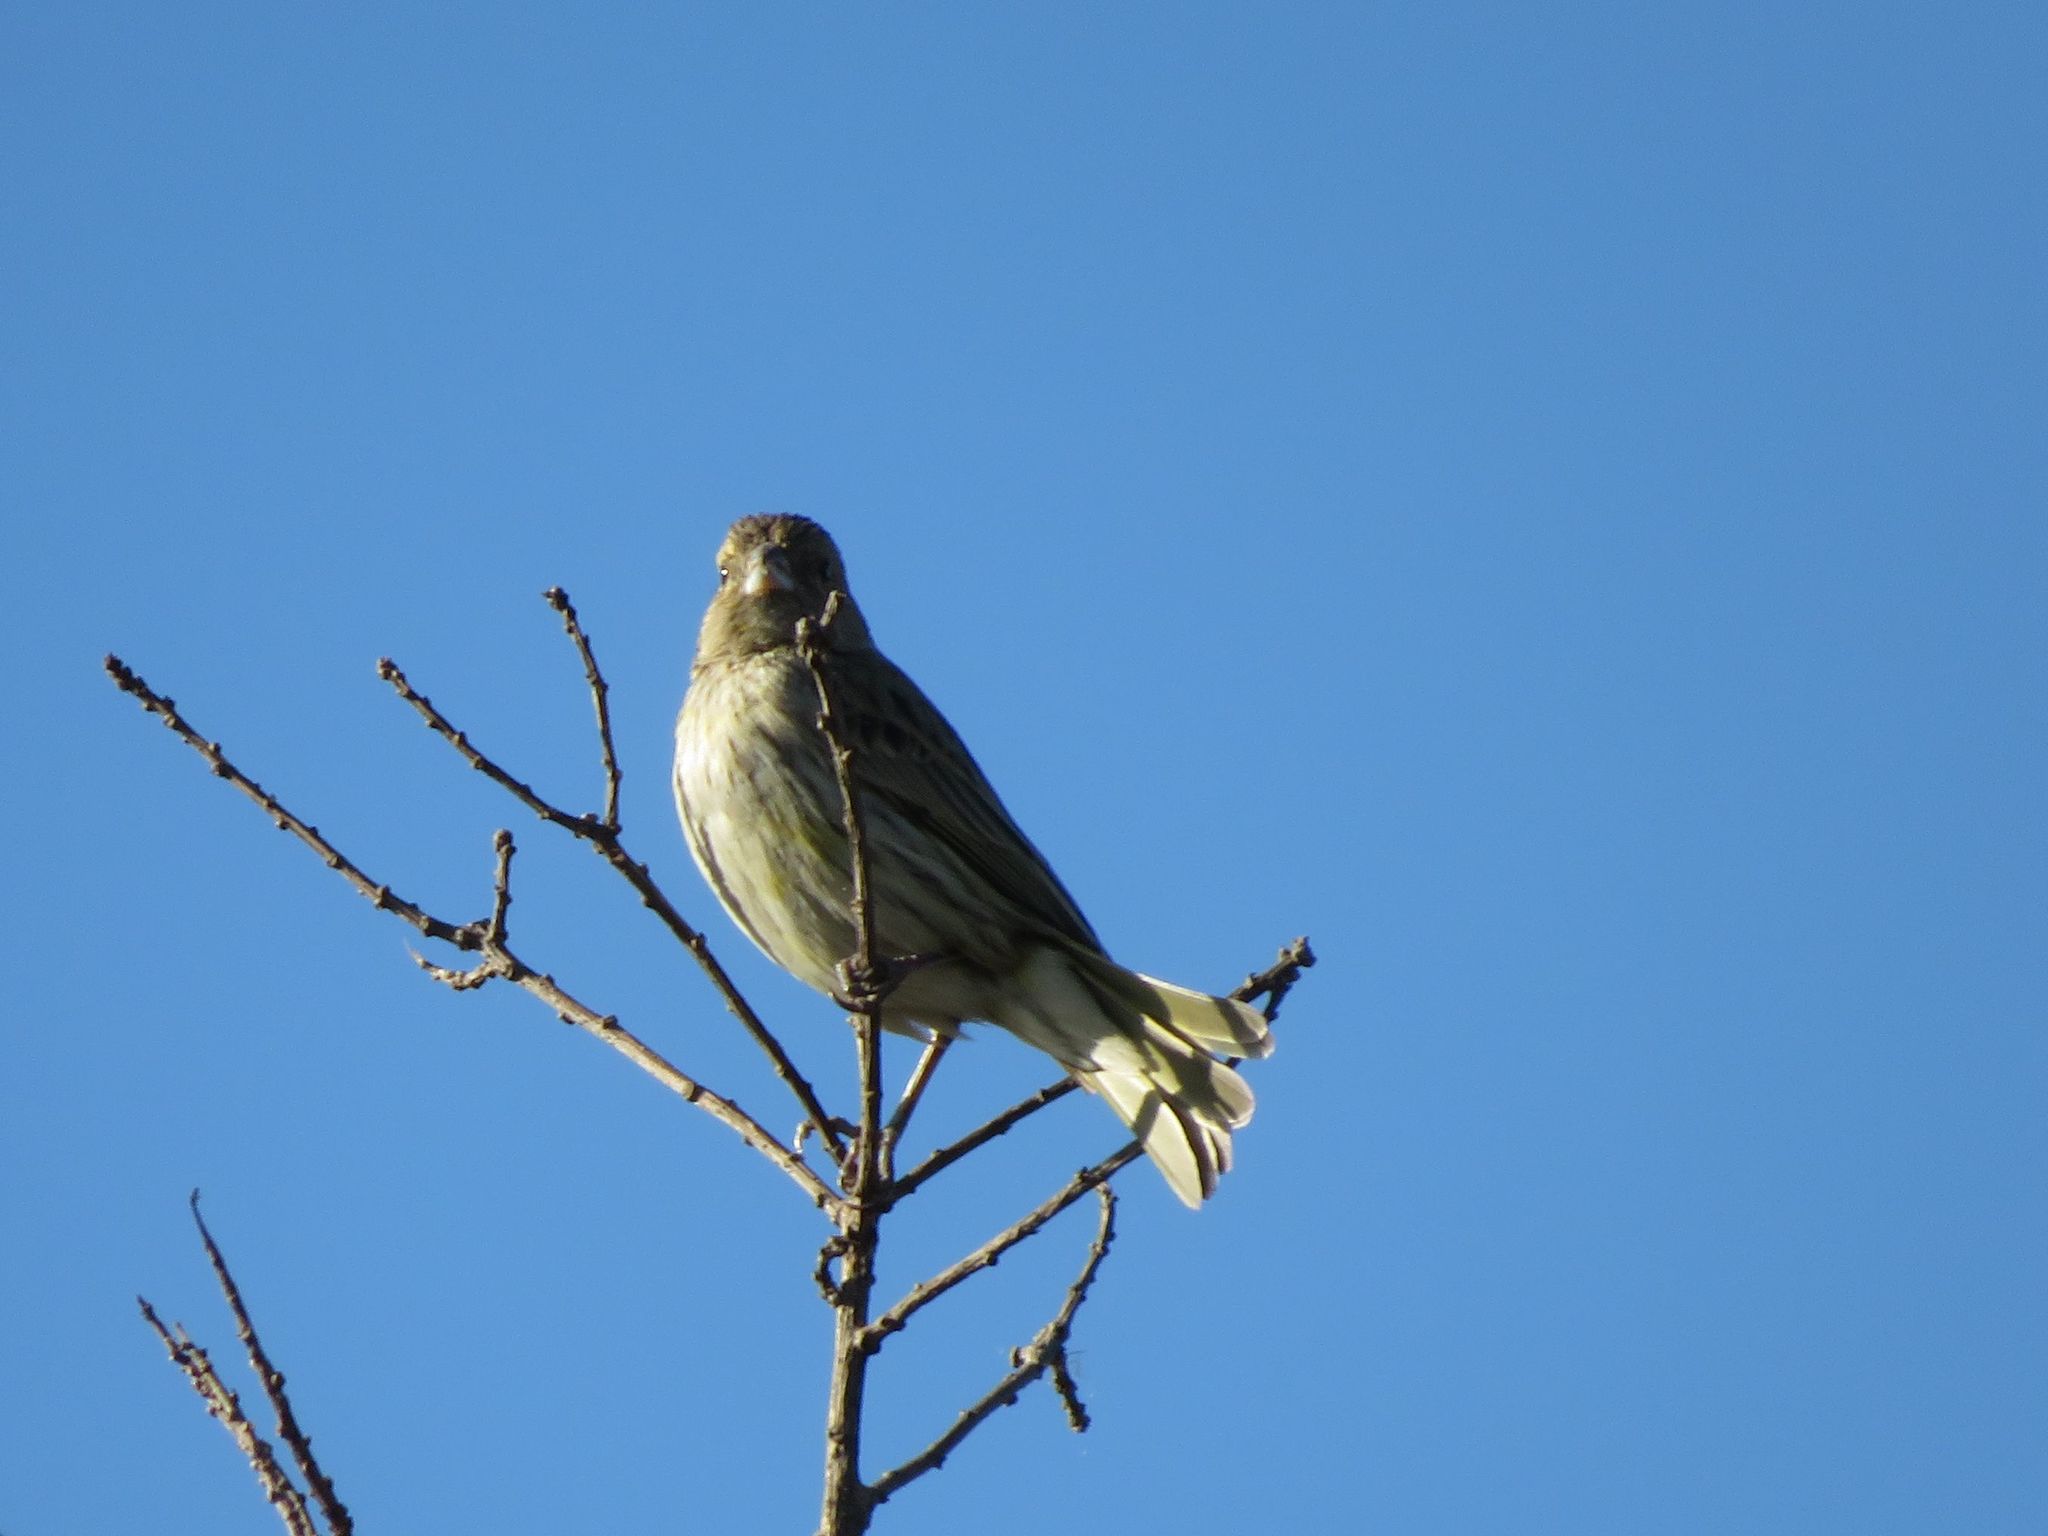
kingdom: Animalia
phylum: Chordata
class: Aves
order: Passeriformes
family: Thraupidae
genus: Sicalis
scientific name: Sicalis flaveola
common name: Saffron finch
